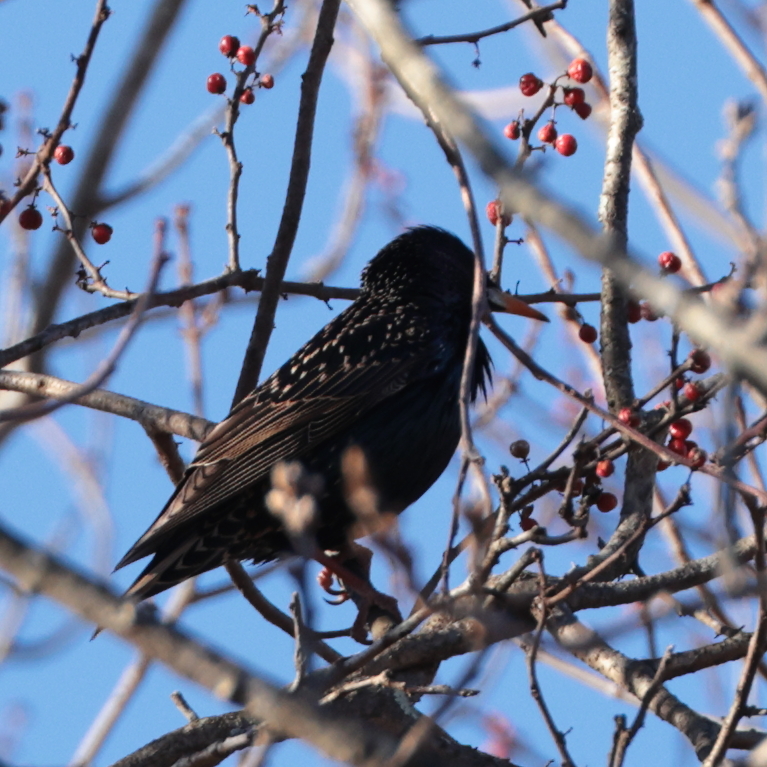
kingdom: Animalia
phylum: Chordata
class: Aves
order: Passeriformes
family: Sturnidae
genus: Sturnus
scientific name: Sturnus vulgaris
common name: Common starling
